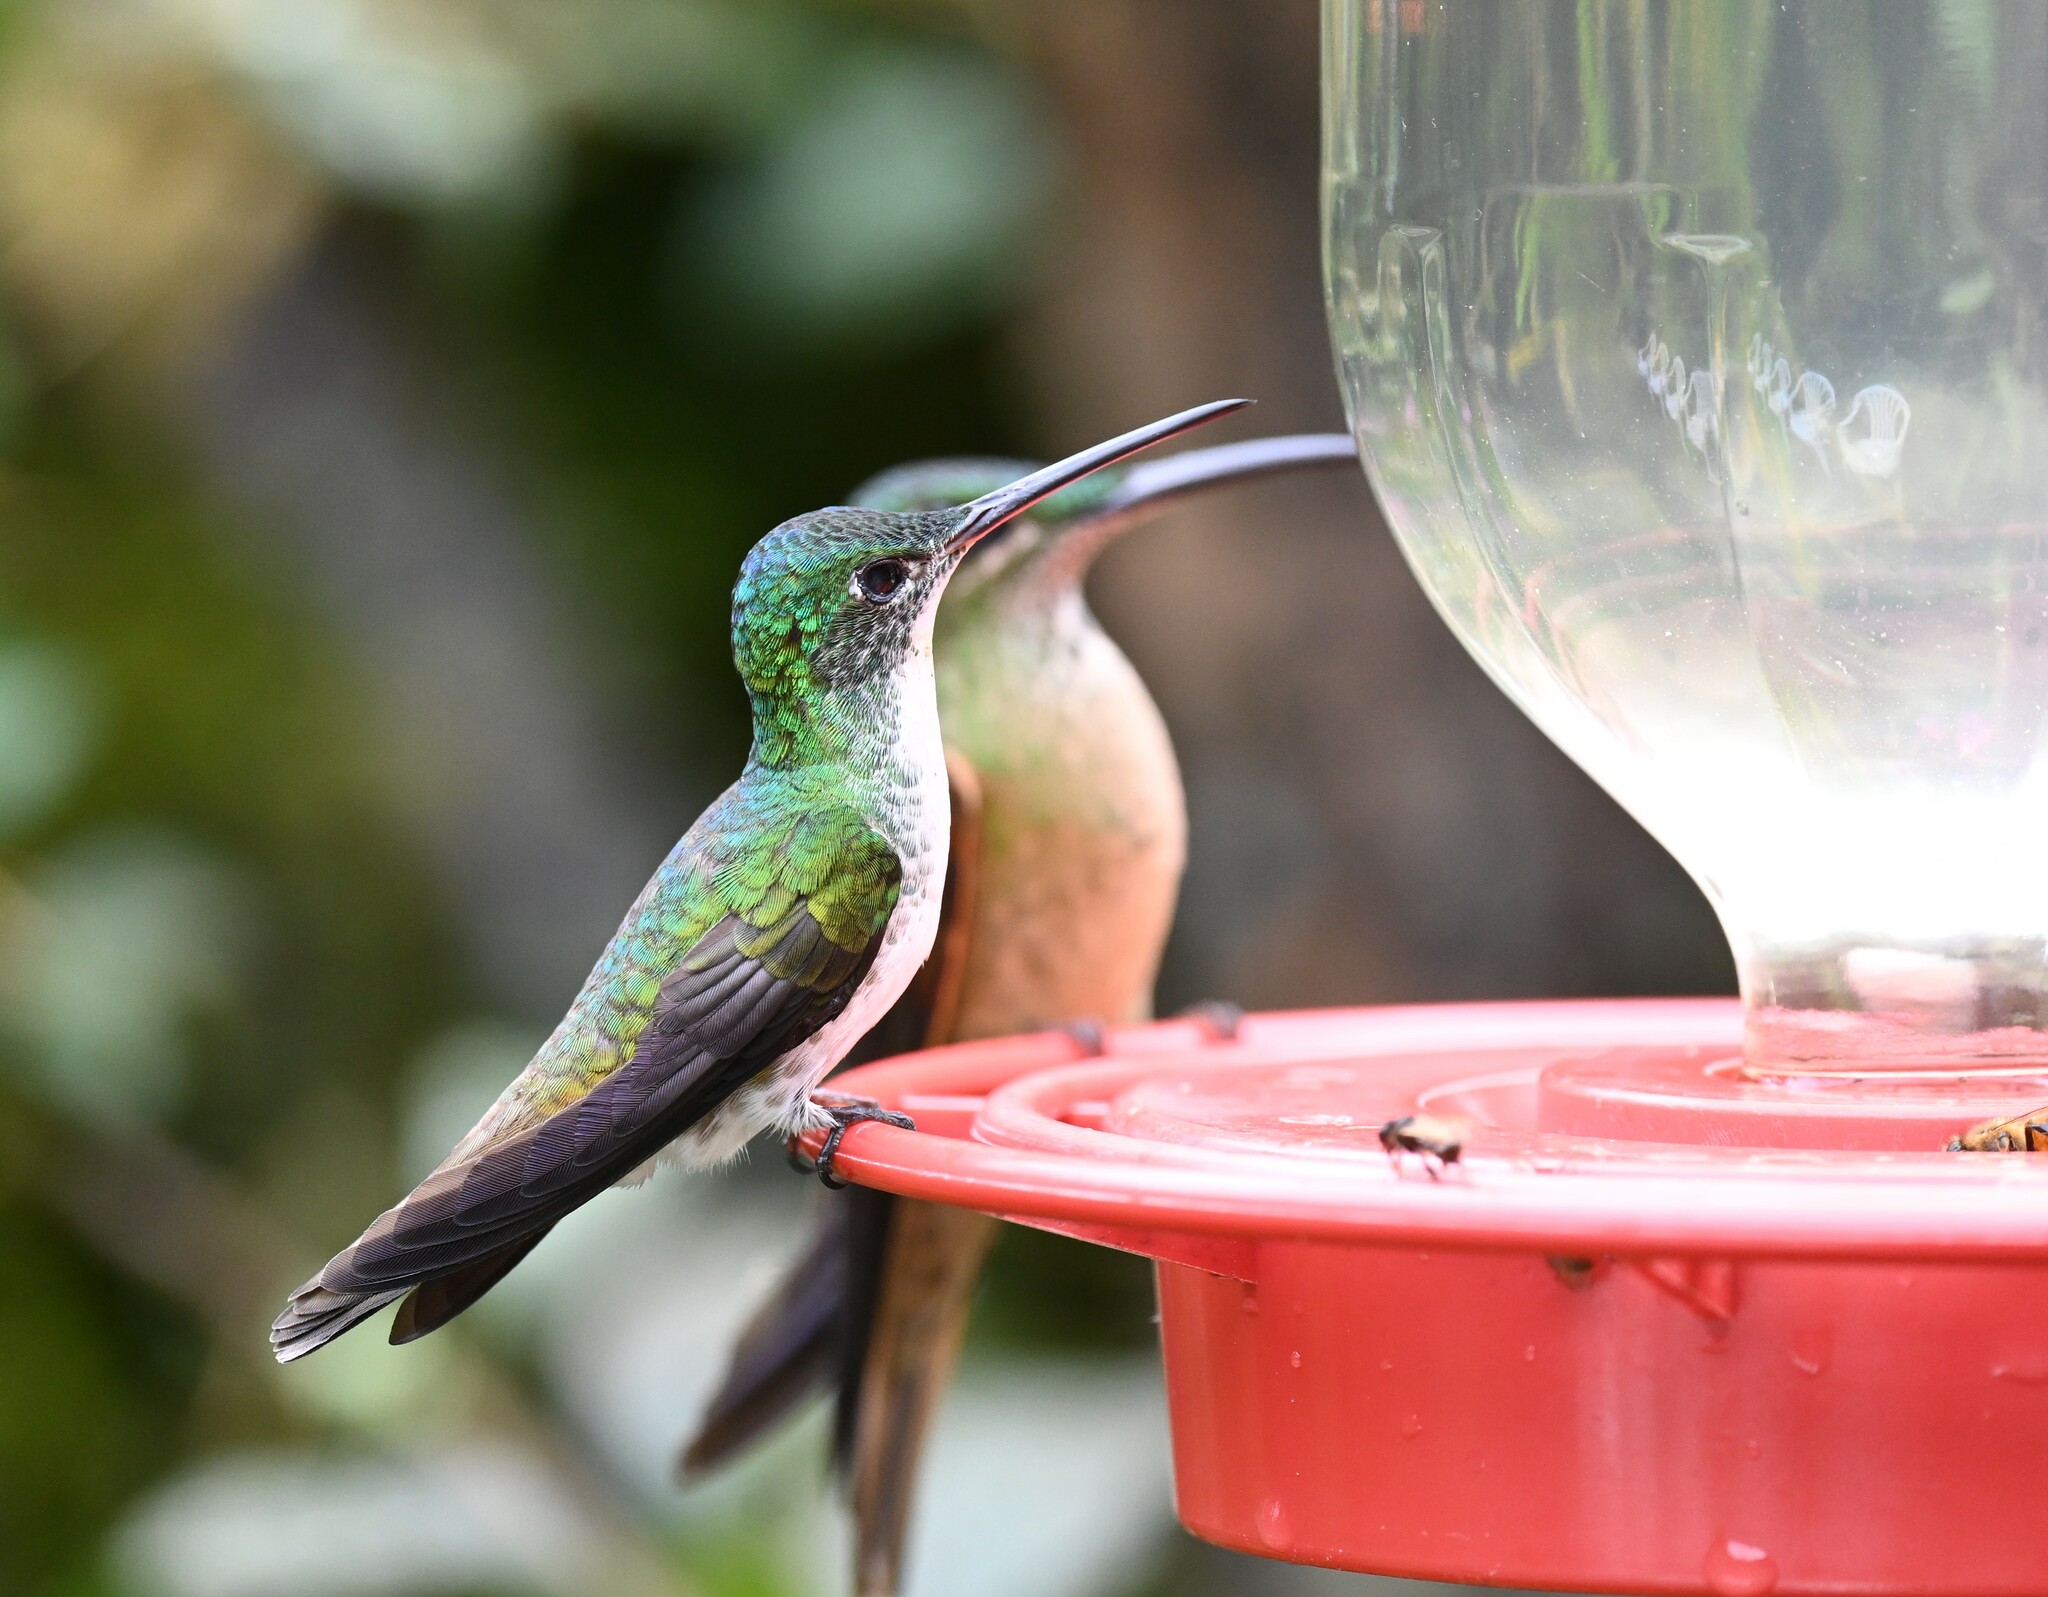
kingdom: Animalia
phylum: Chordata
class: Aves
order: Apodiformes
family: Trochilidae
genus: Uranomitra
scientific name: Uranomitra franciae
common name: Andean emerald
